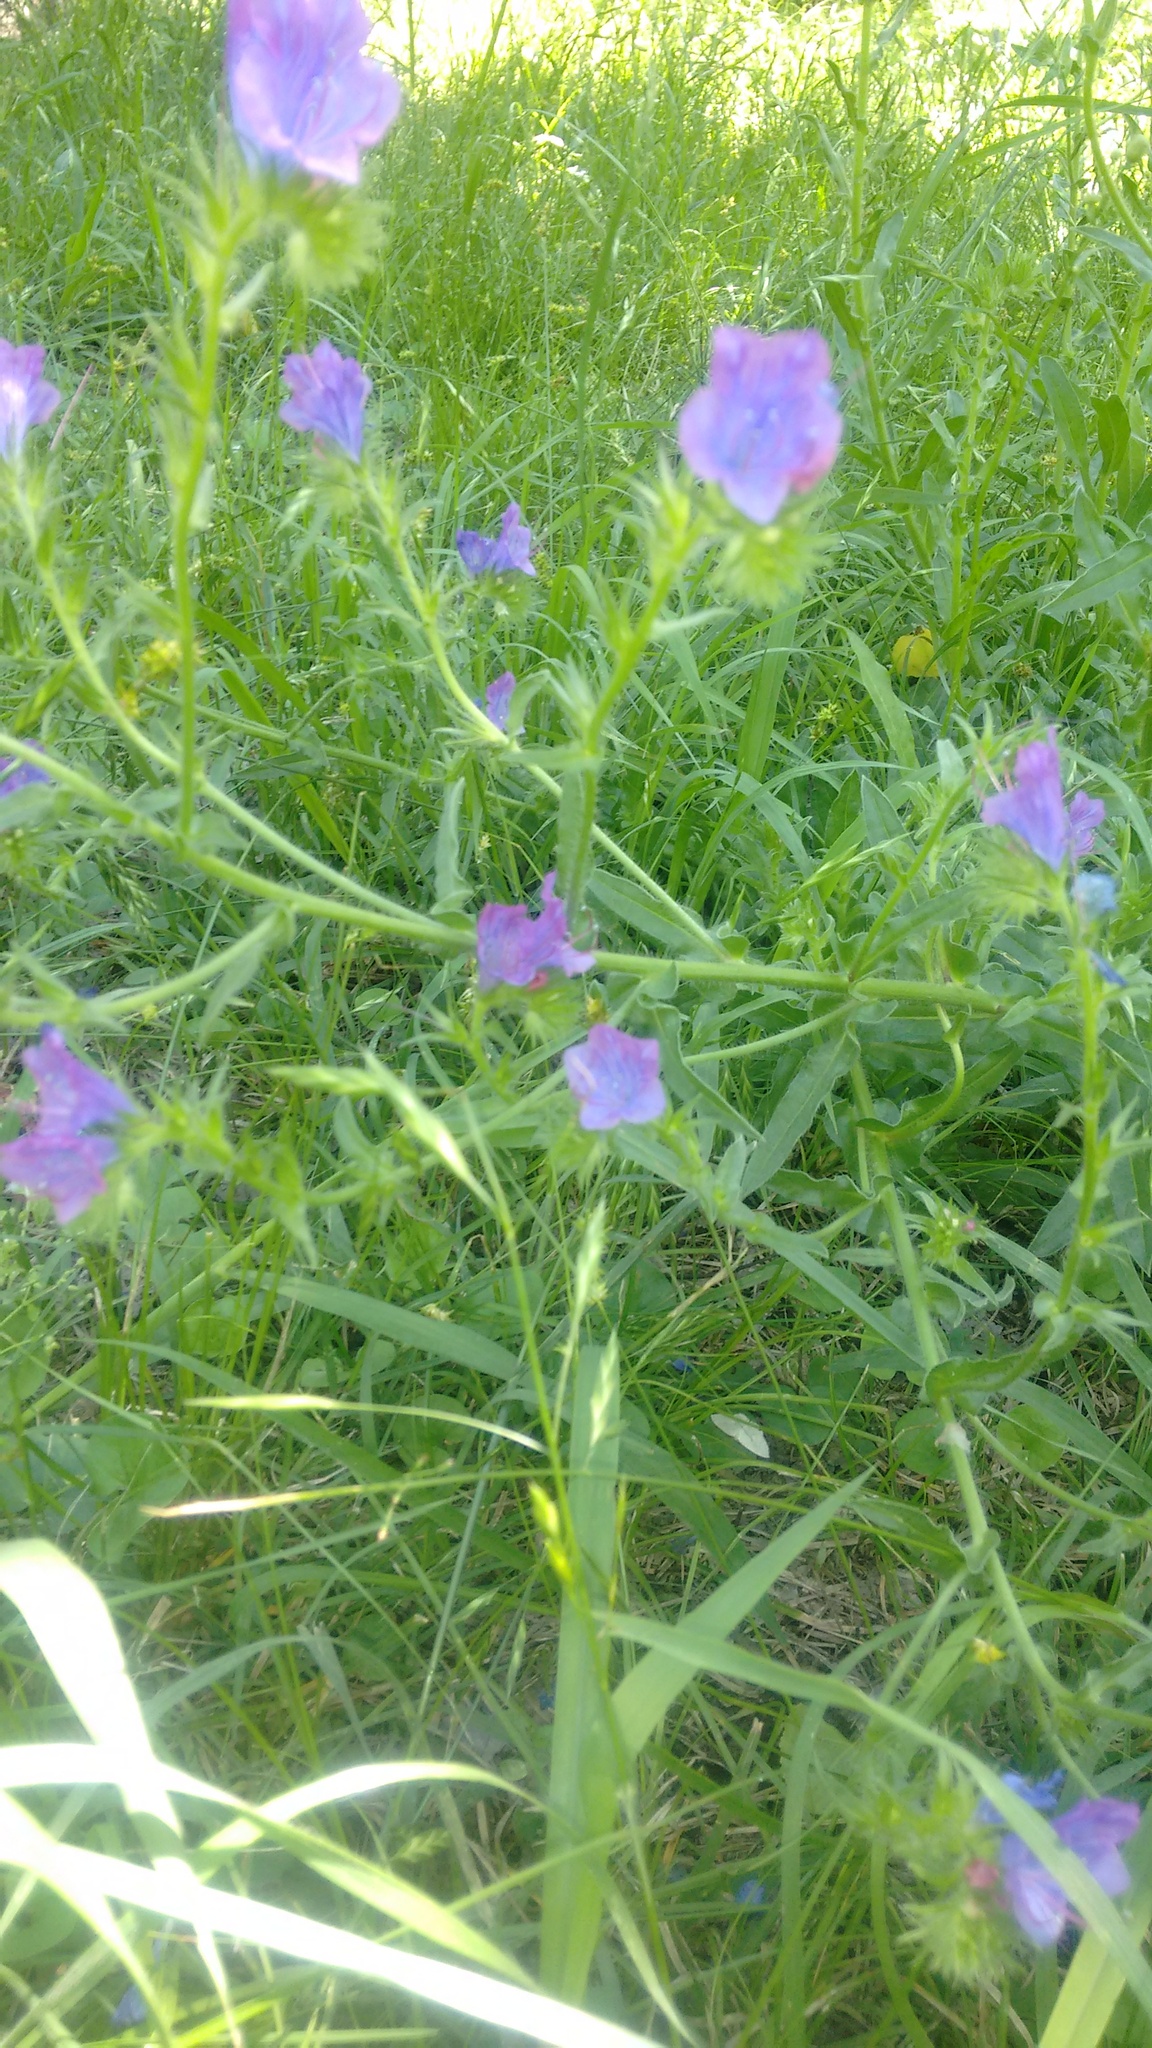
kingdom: Plantae
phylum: Tracheophyta
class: Magnoliopsida
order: Boraginales
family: Boraginaceae
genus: Echium
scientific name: Echium plantagineum
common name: Purple viper's-bugloss
